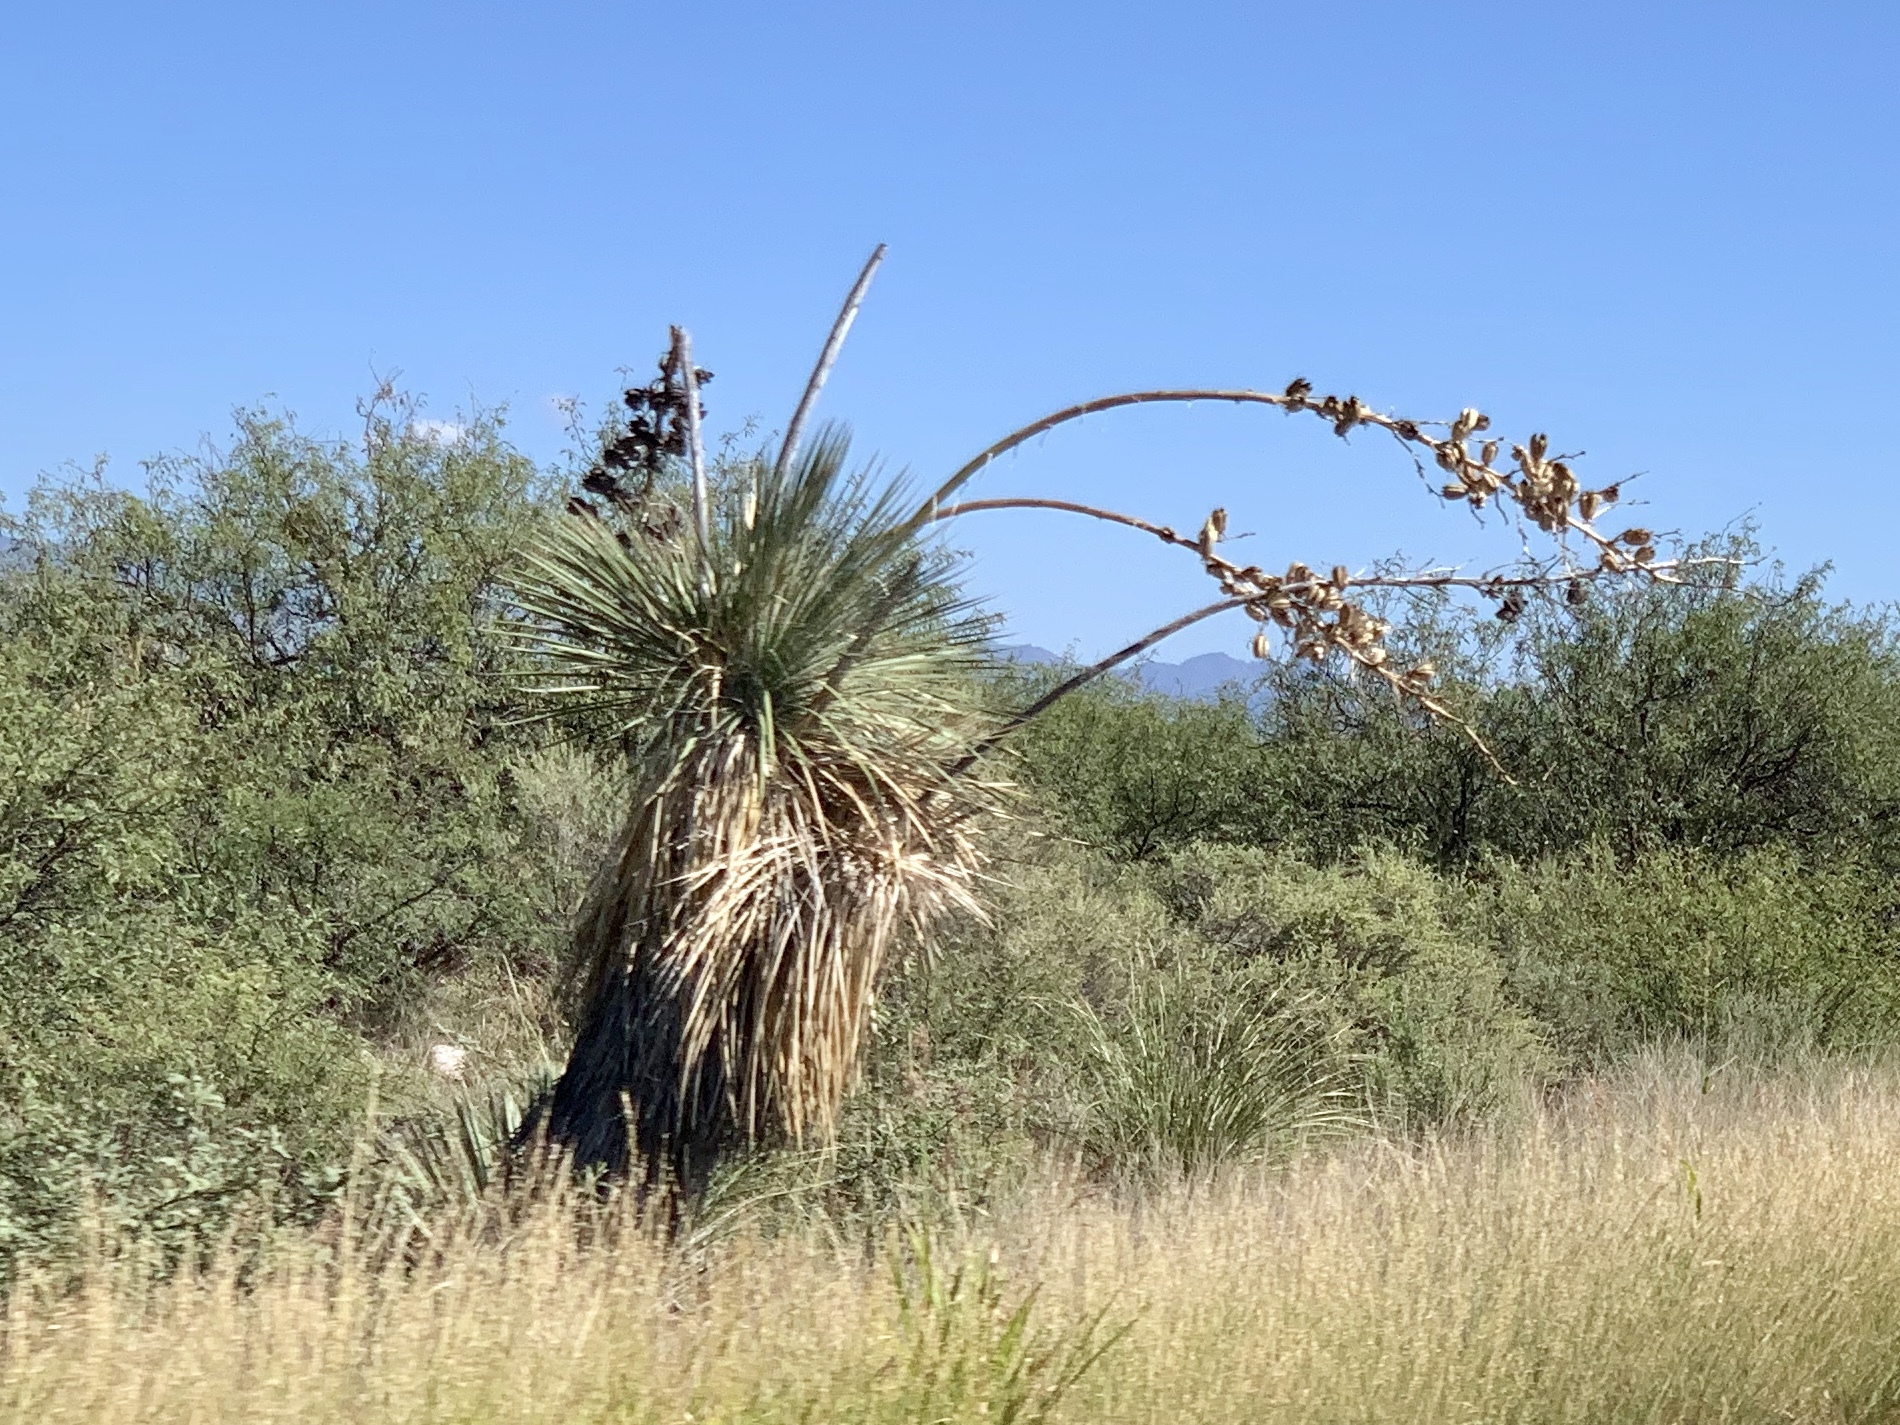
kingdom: Plantae
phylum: Tracheophyta
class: Liliopsida
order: Asparagales
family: Asparagaceae
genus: Yucca
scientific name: Yucca elata
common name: Palmella
